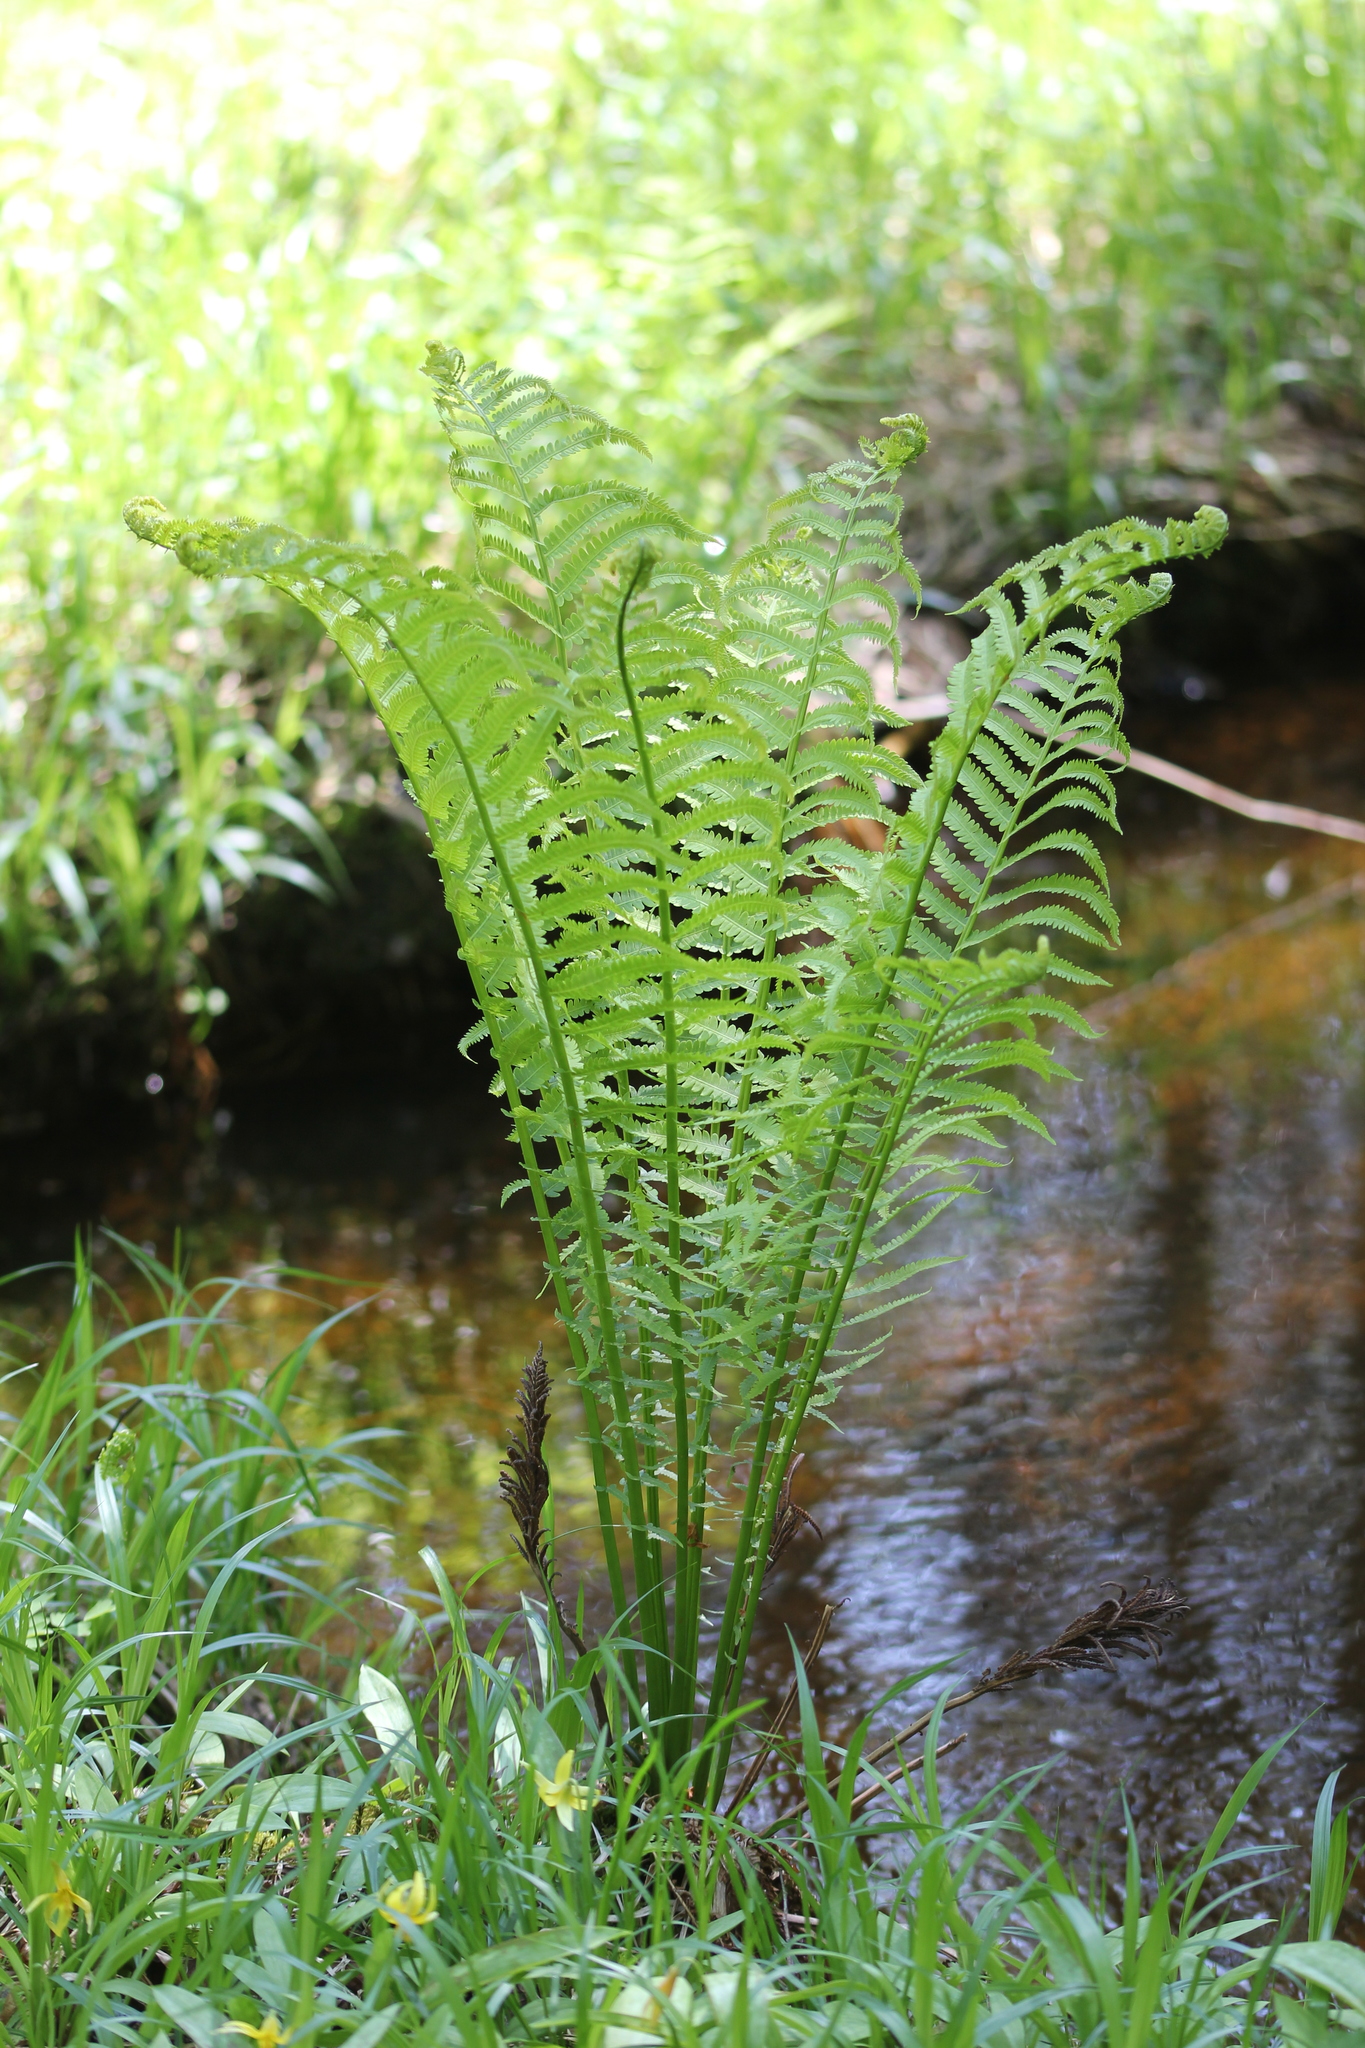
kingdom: Plantae
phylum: Tracheophyta
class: Polypodiopsida
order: Polypodiales
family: Onocleaceae
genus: Matteuccia
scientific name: Matteuccia struthiopteris
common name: Ostrich fern
